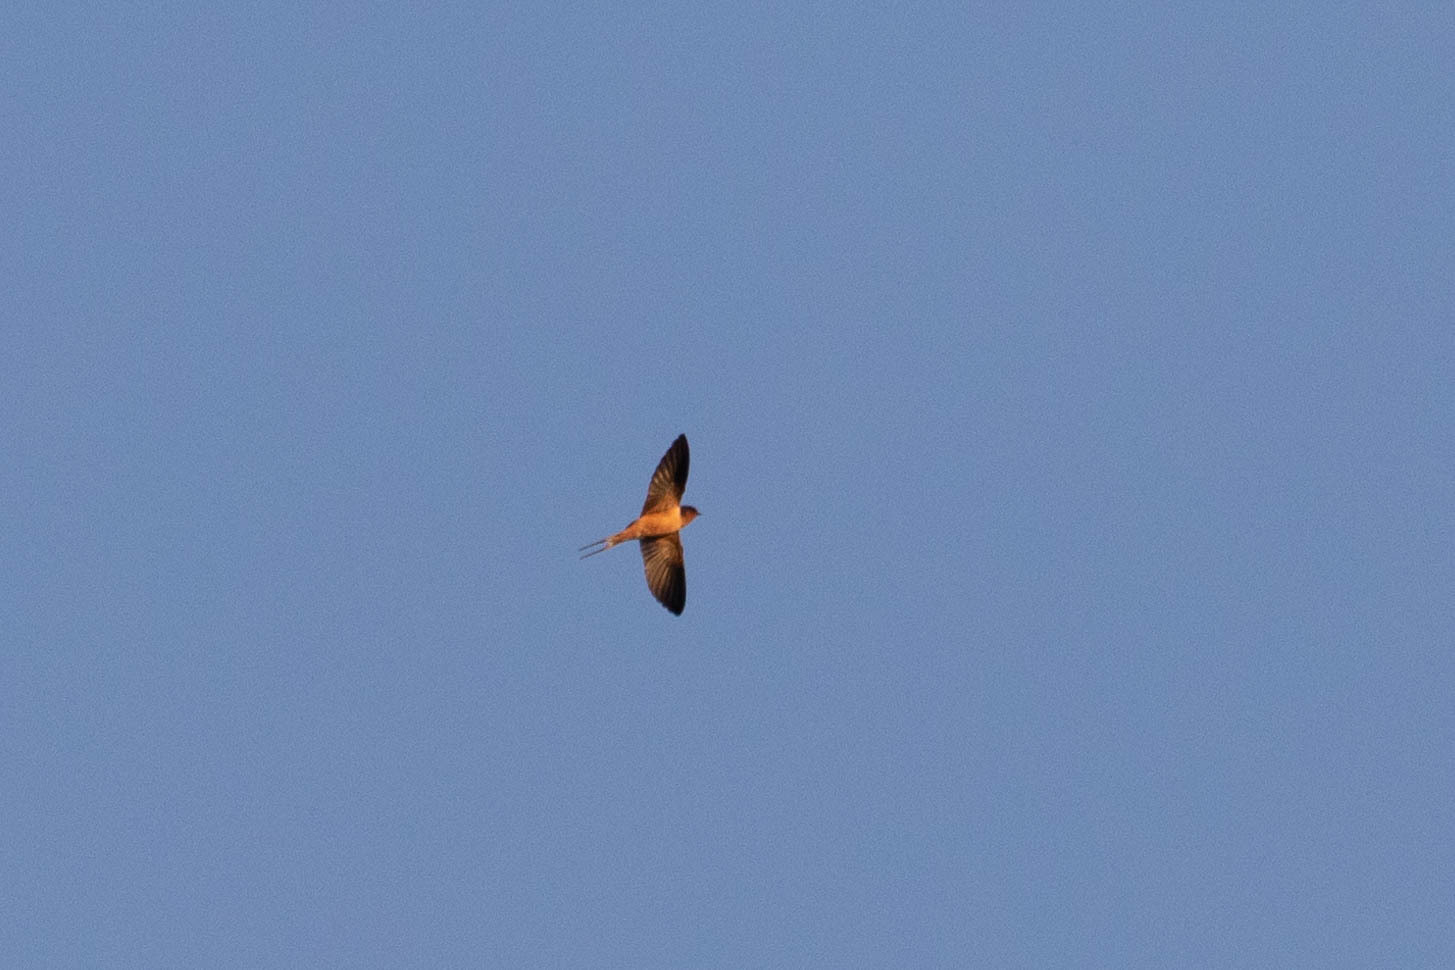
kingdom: Animalia
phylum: Chordata
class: Aves
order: Passeriformes
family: Hirundinidae
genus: Hirundo
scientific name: Hirundo rustica
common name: Barn swallow
